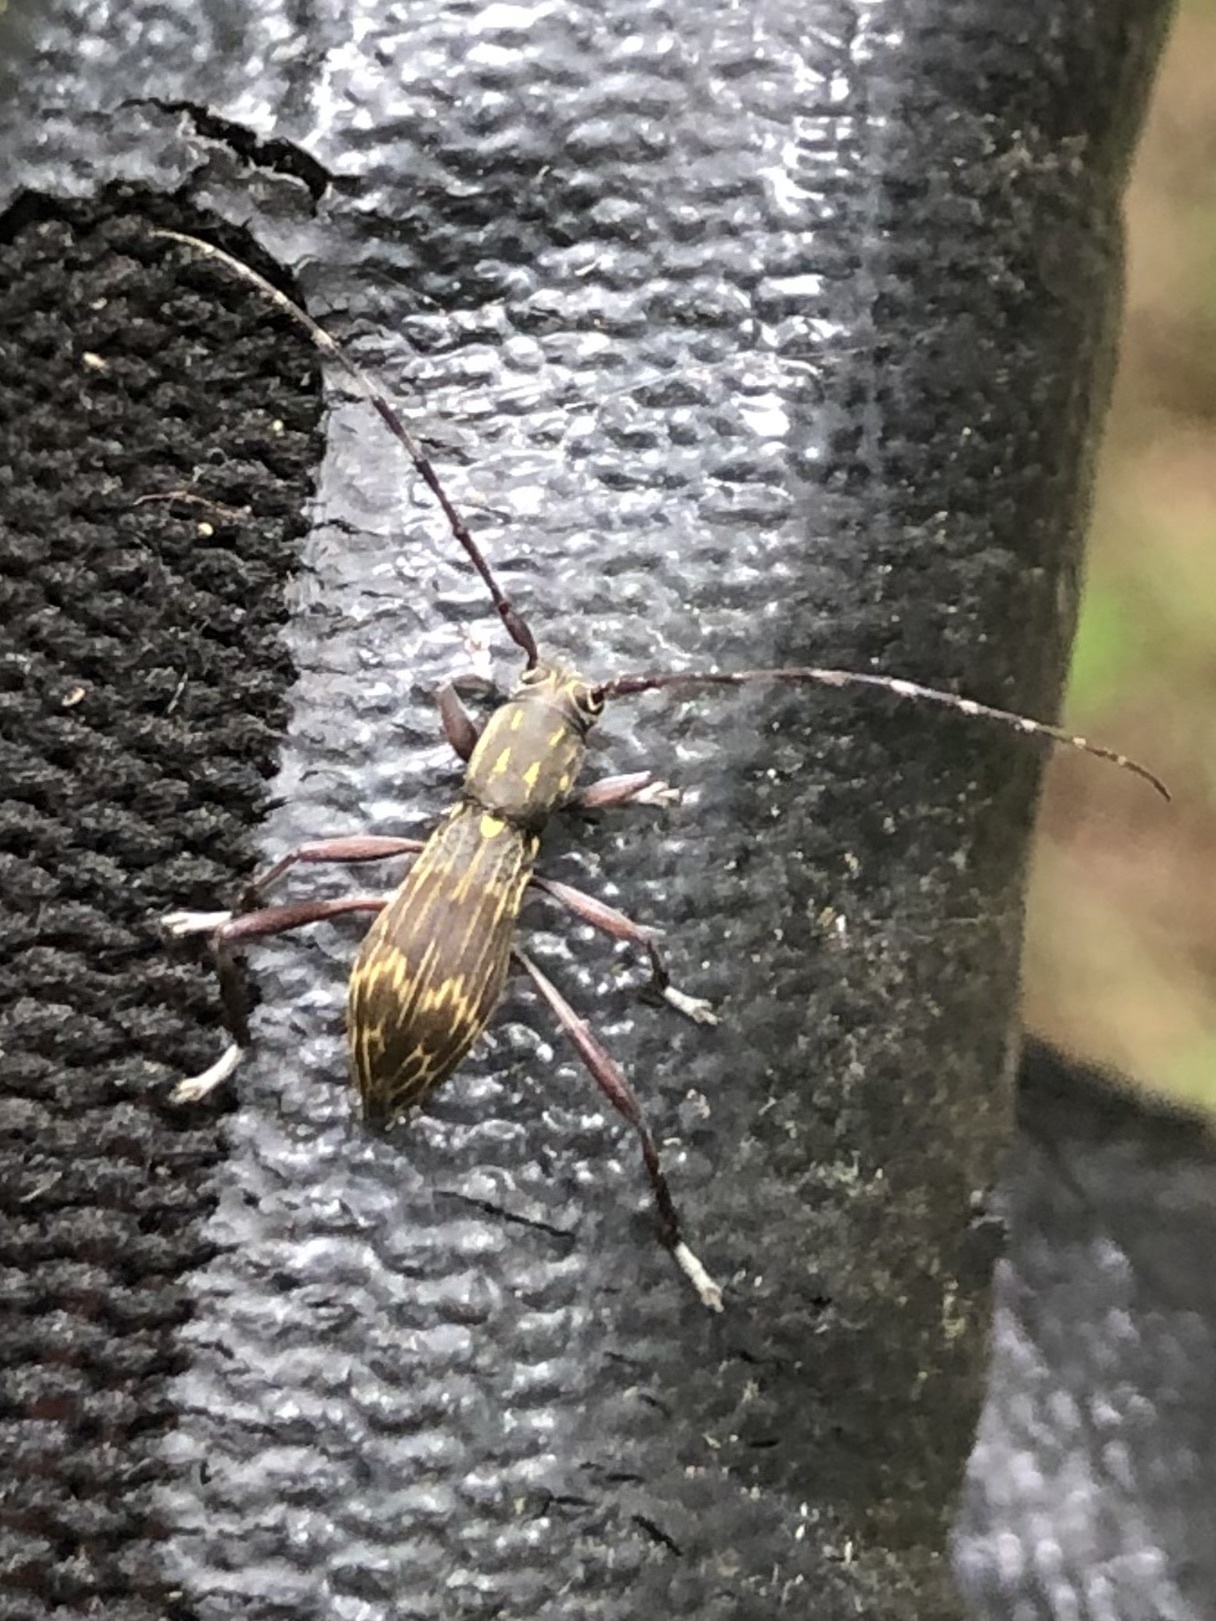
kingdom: Animalia
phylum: Arthropoda
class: Insecta
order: Coleoptera
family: Cerambycidae
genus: Mesolita
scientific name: Mesolita lineolata
